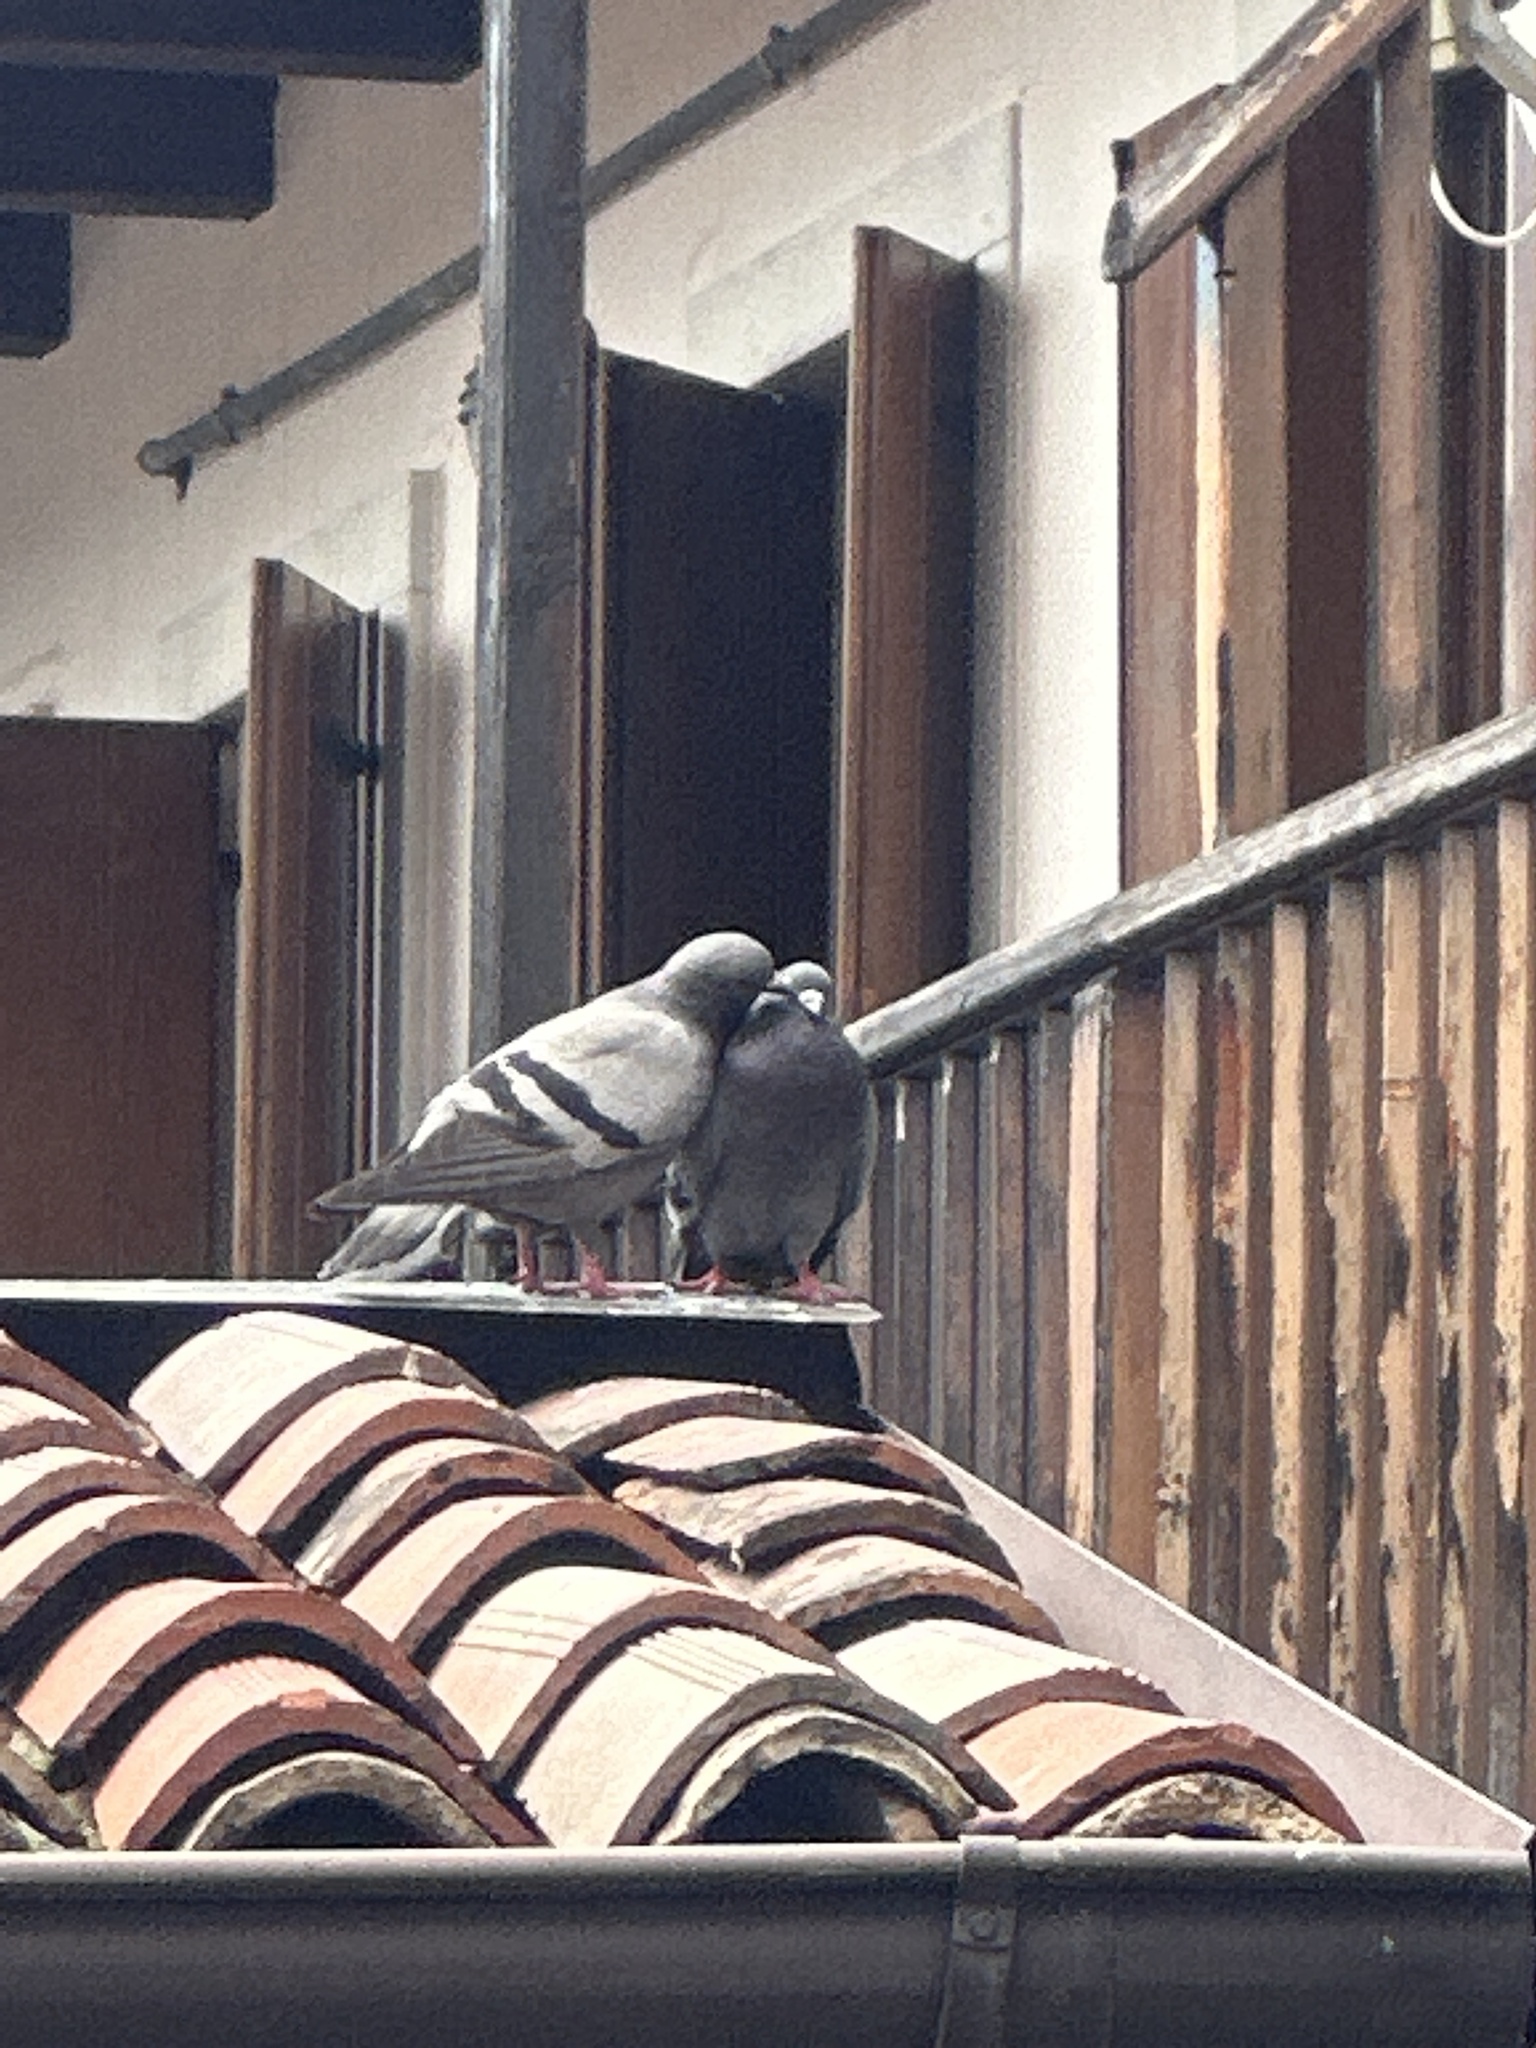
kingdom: Animalia
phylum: Chordata
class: Aves
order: Columbiformes
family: Columbidae
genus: Columba
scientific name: Columba livia
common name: Rock pigeon
